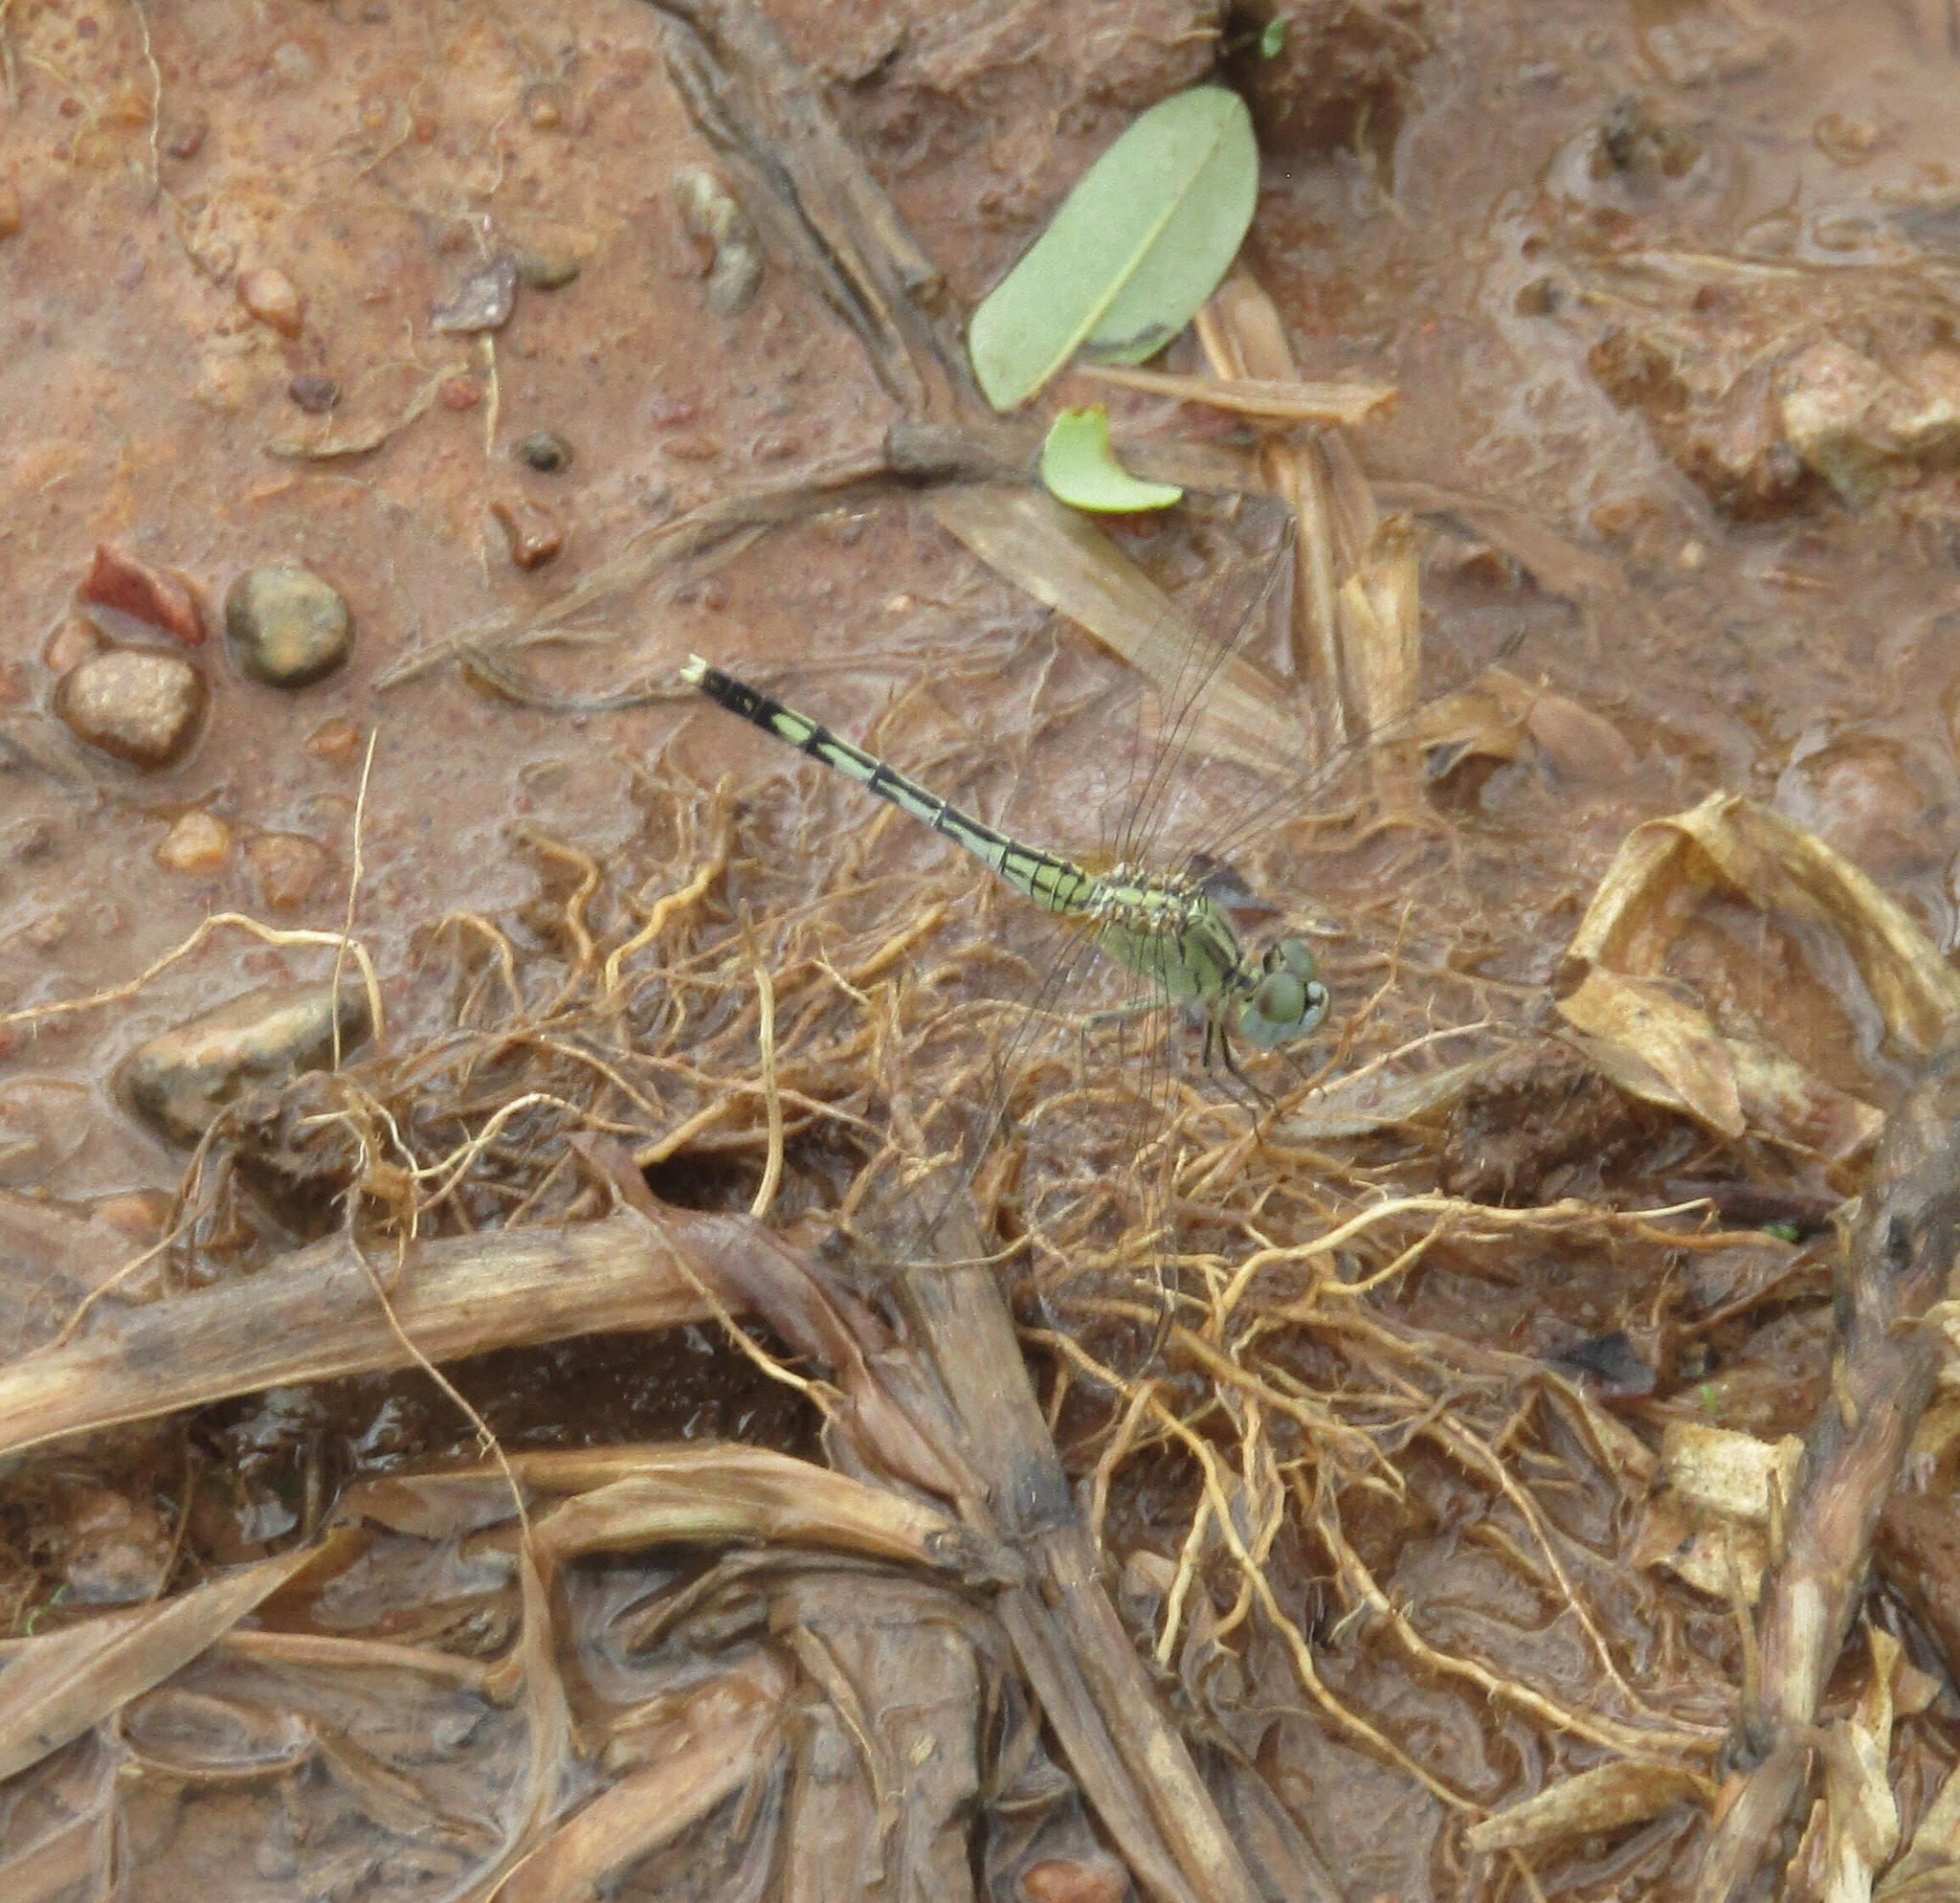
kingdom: Animalia
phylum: Arthropoda
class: Insecta
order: Odonata
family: Libellulidae
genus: Diplacodes
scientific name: Diplacodes trivialis
